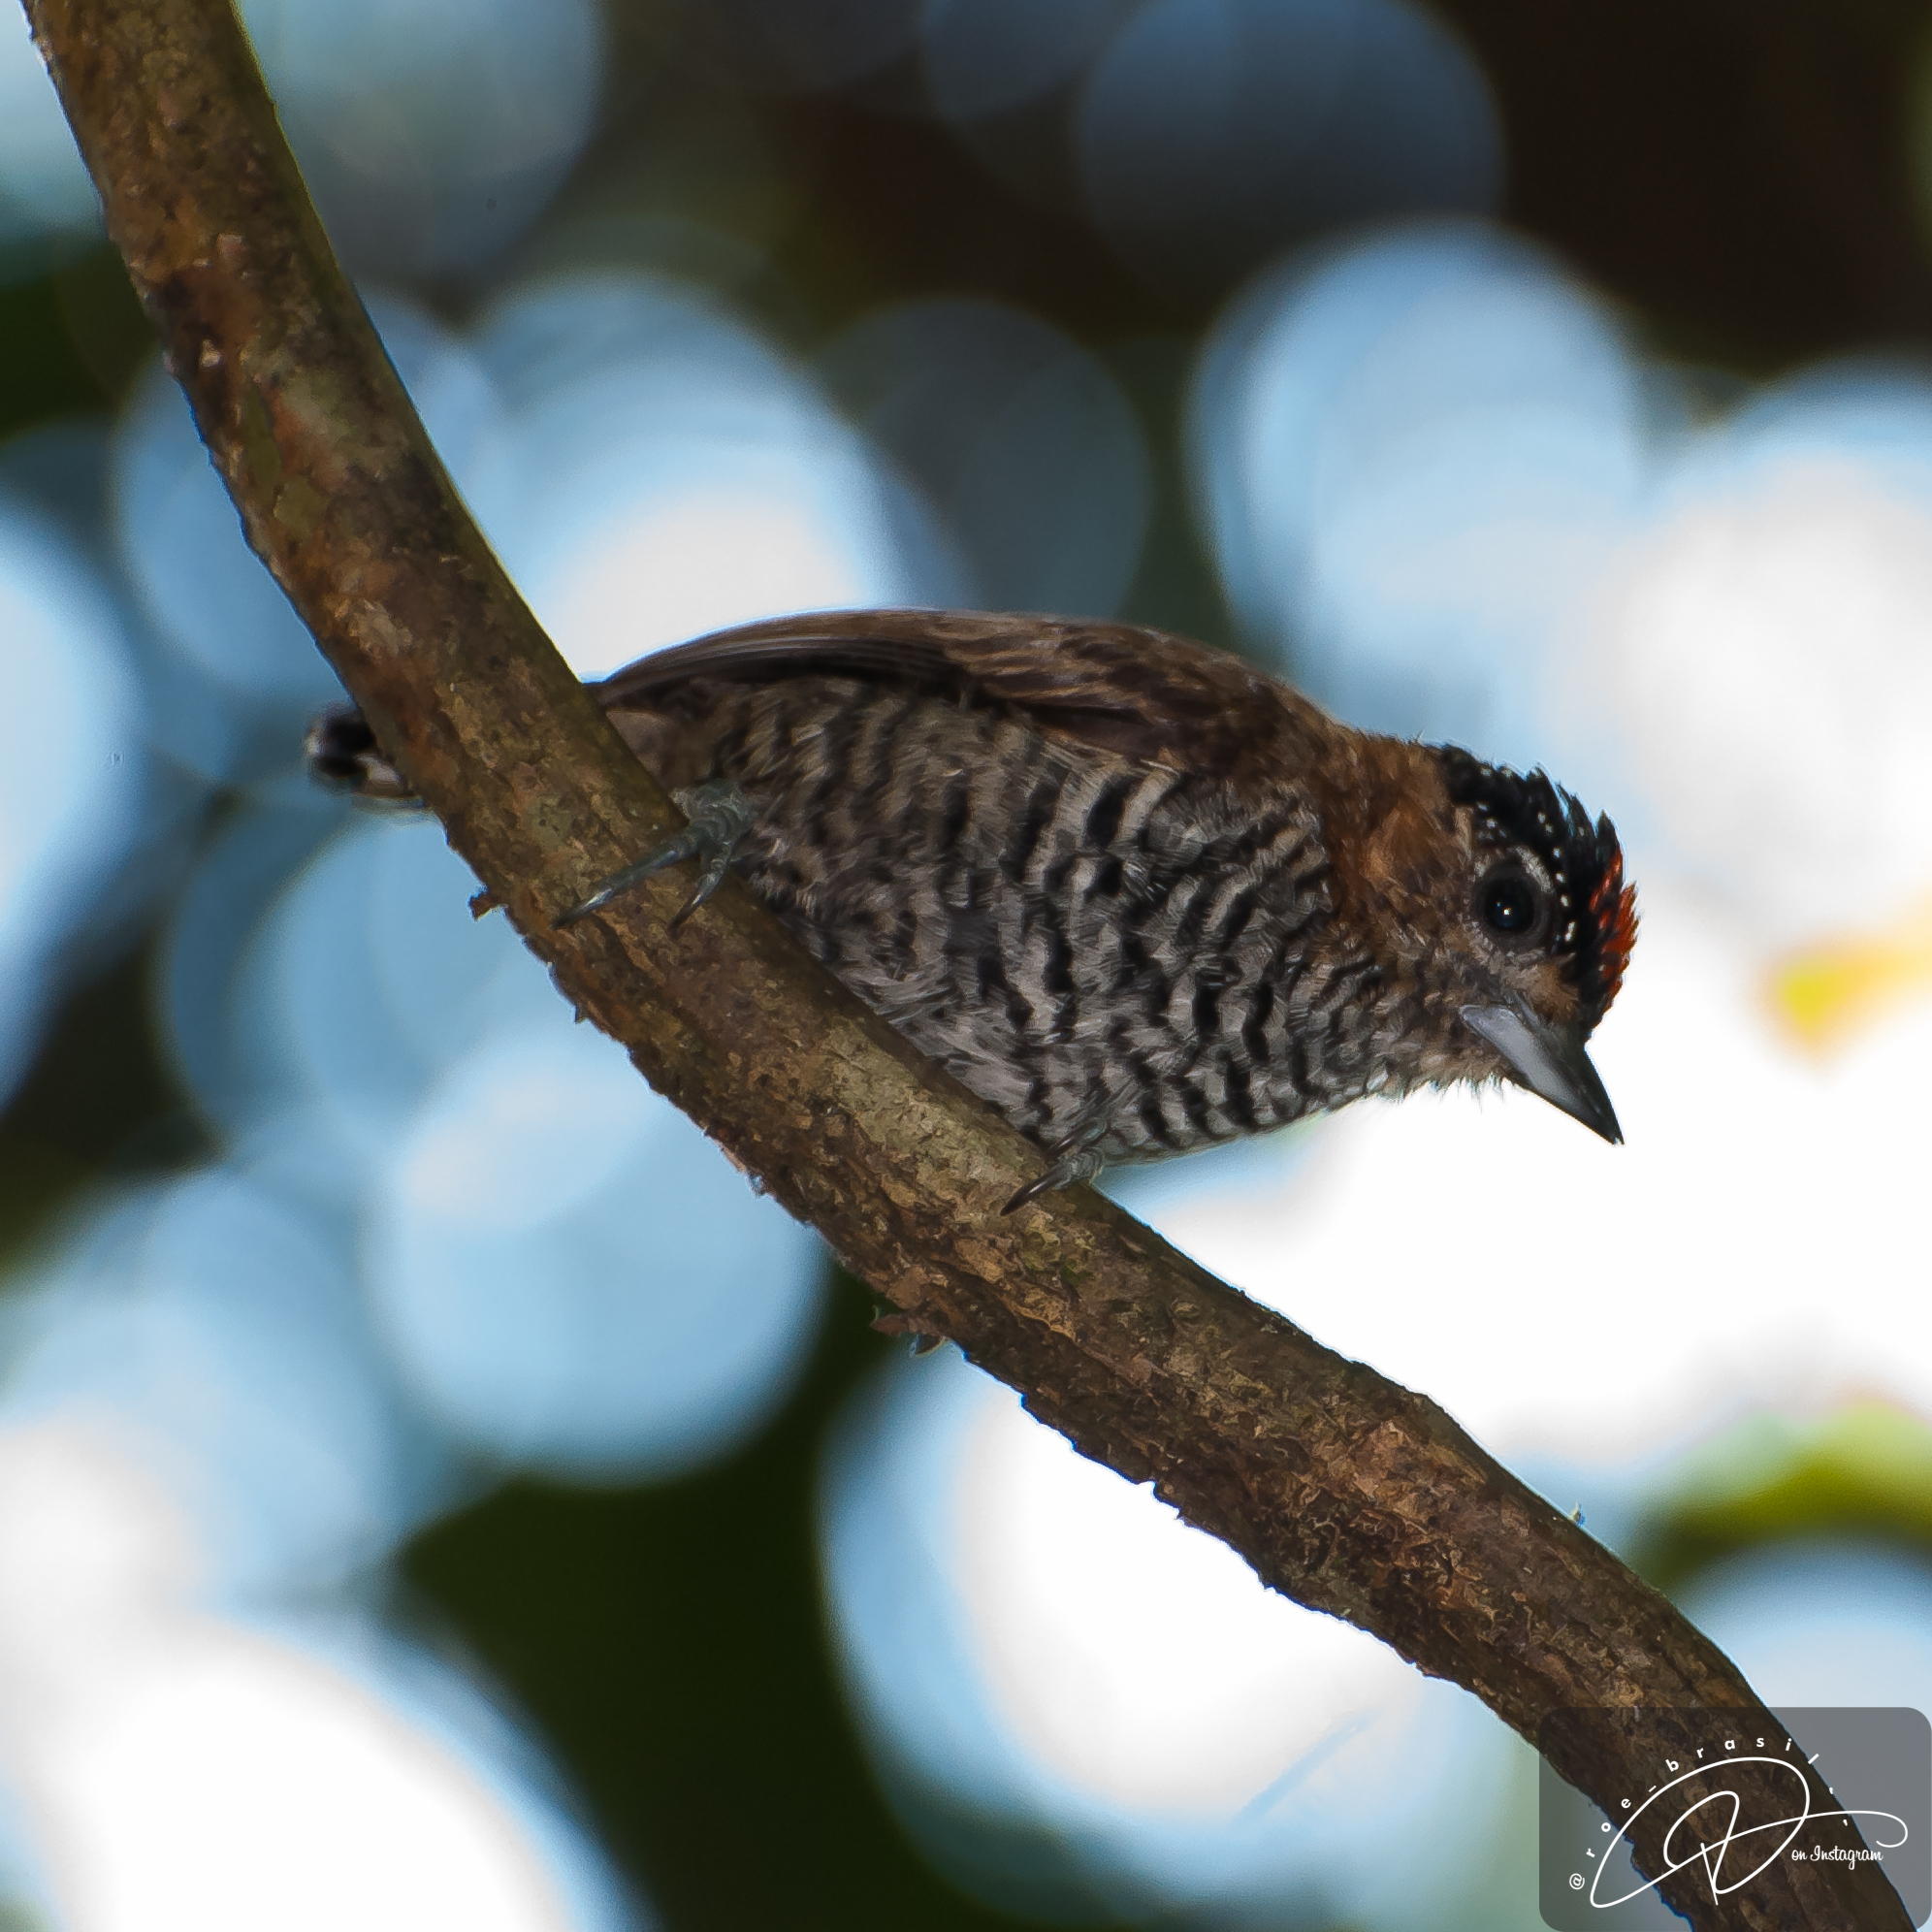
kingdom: Animalia
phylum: Chordata
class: Aves
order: Piciformes
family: Picidae
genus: Picumnus
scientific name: Picumnus temminckii
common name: Ochre-collared piculet
